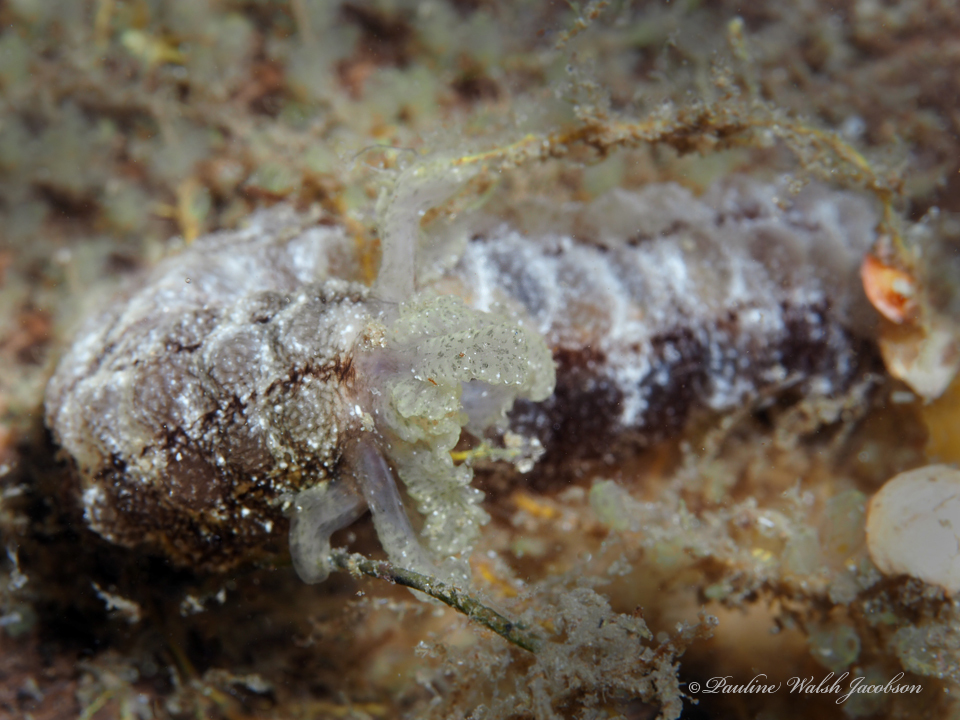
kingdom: Animalia
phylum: Echinodermata
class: Holothuroidea
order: Apodida
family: Synaptidae
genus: Euapta
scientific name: Euapta lappa
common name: Sticky-skinned sea cucumber
